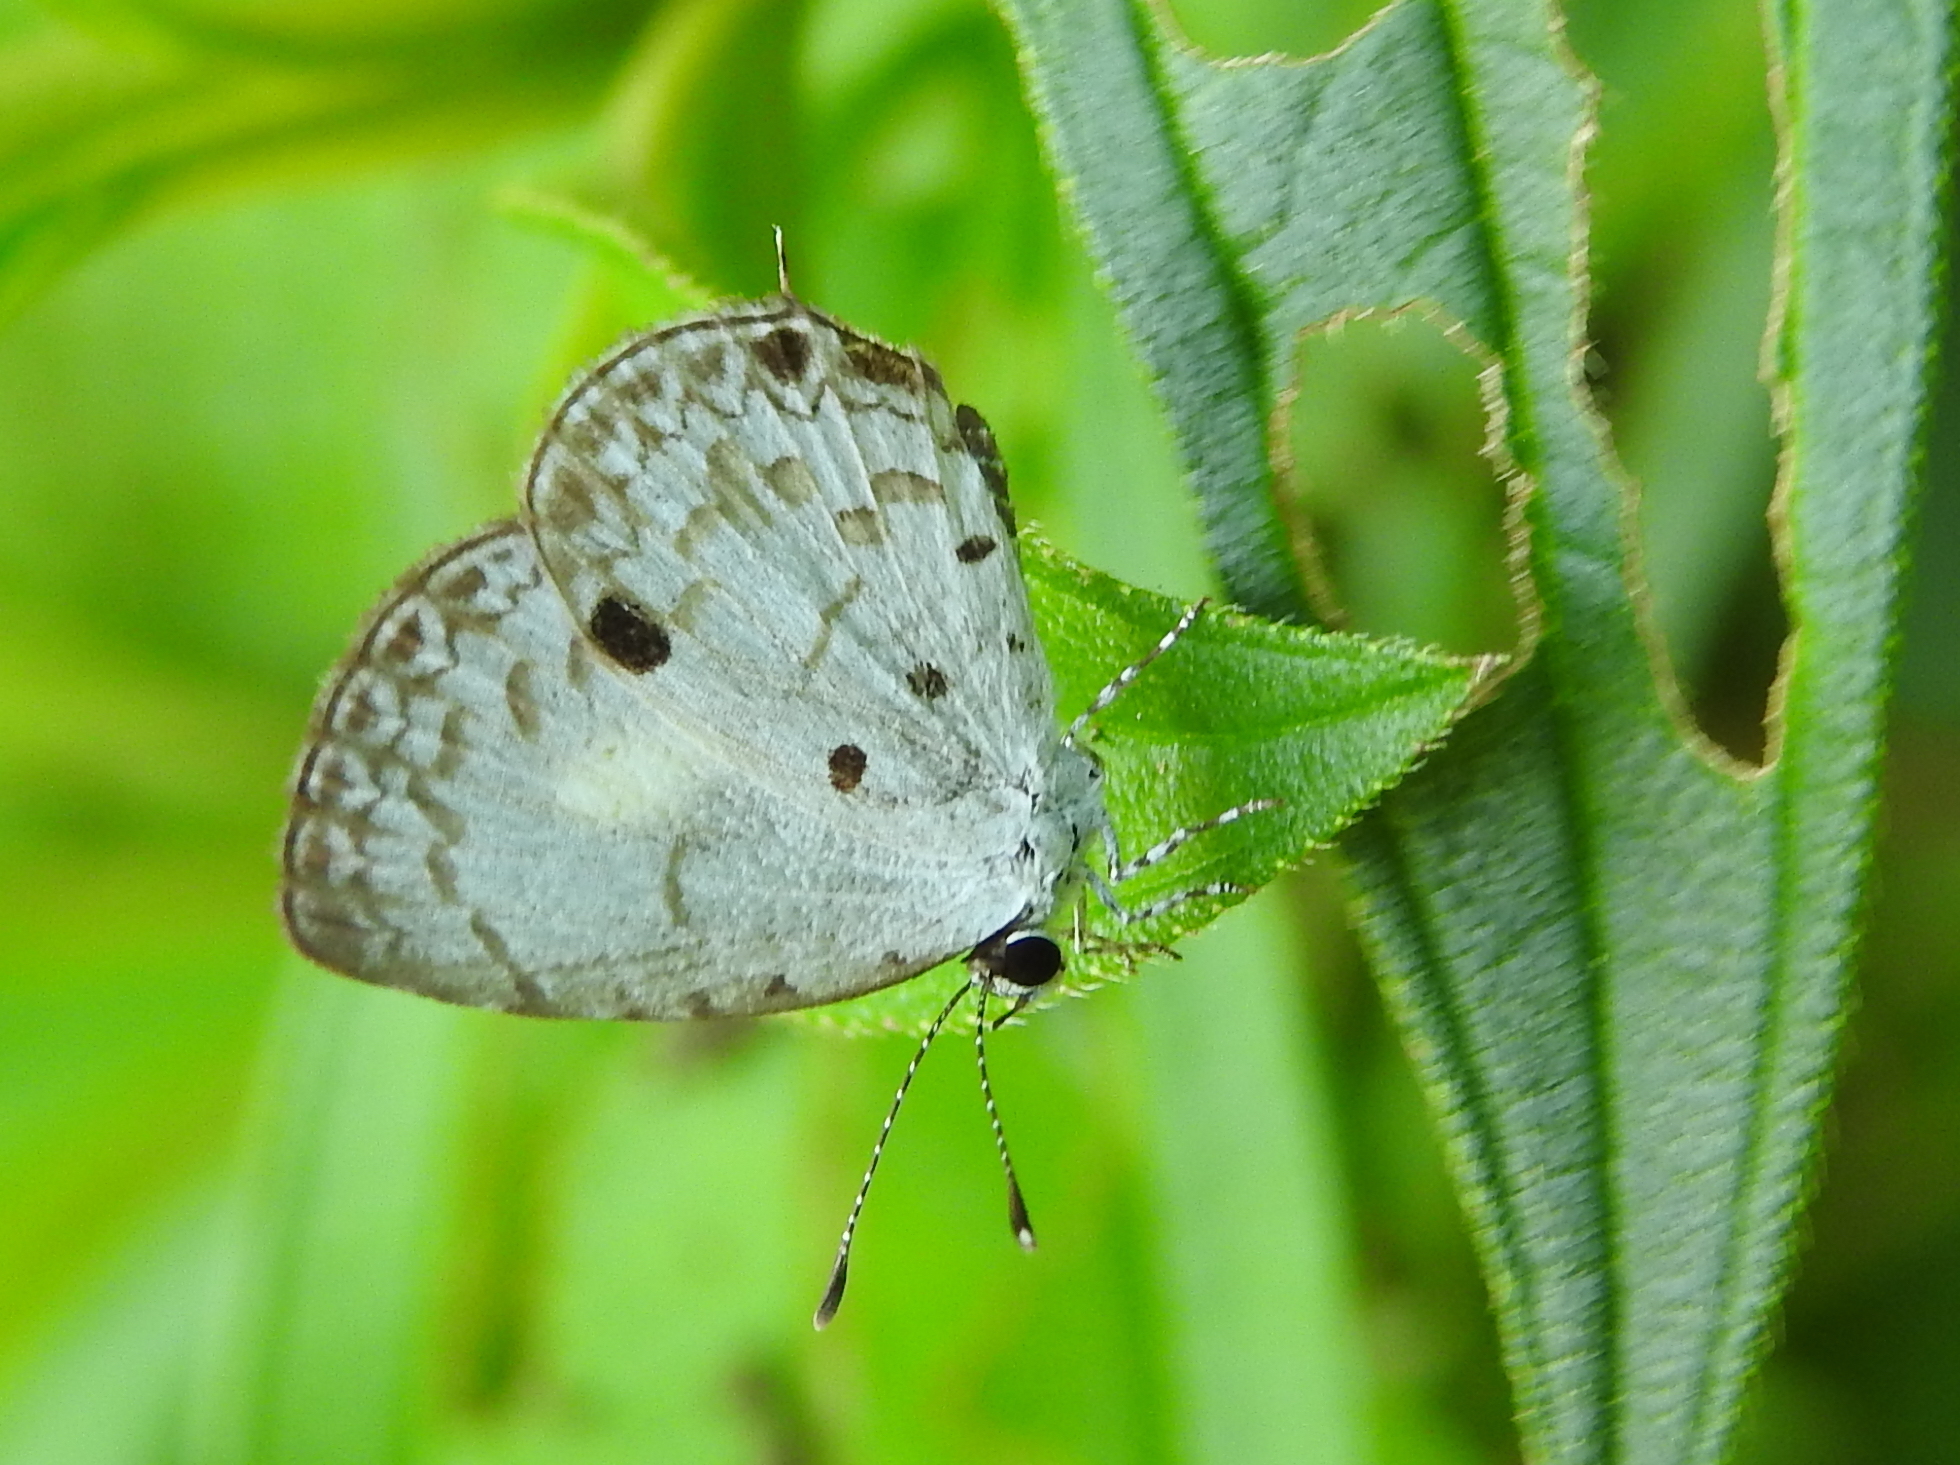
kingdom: Animalia
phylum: Arthropoda
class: Insecta
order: Lepidoptera
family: Lycaenidae
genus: Megisba
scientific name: Megisba malaya
